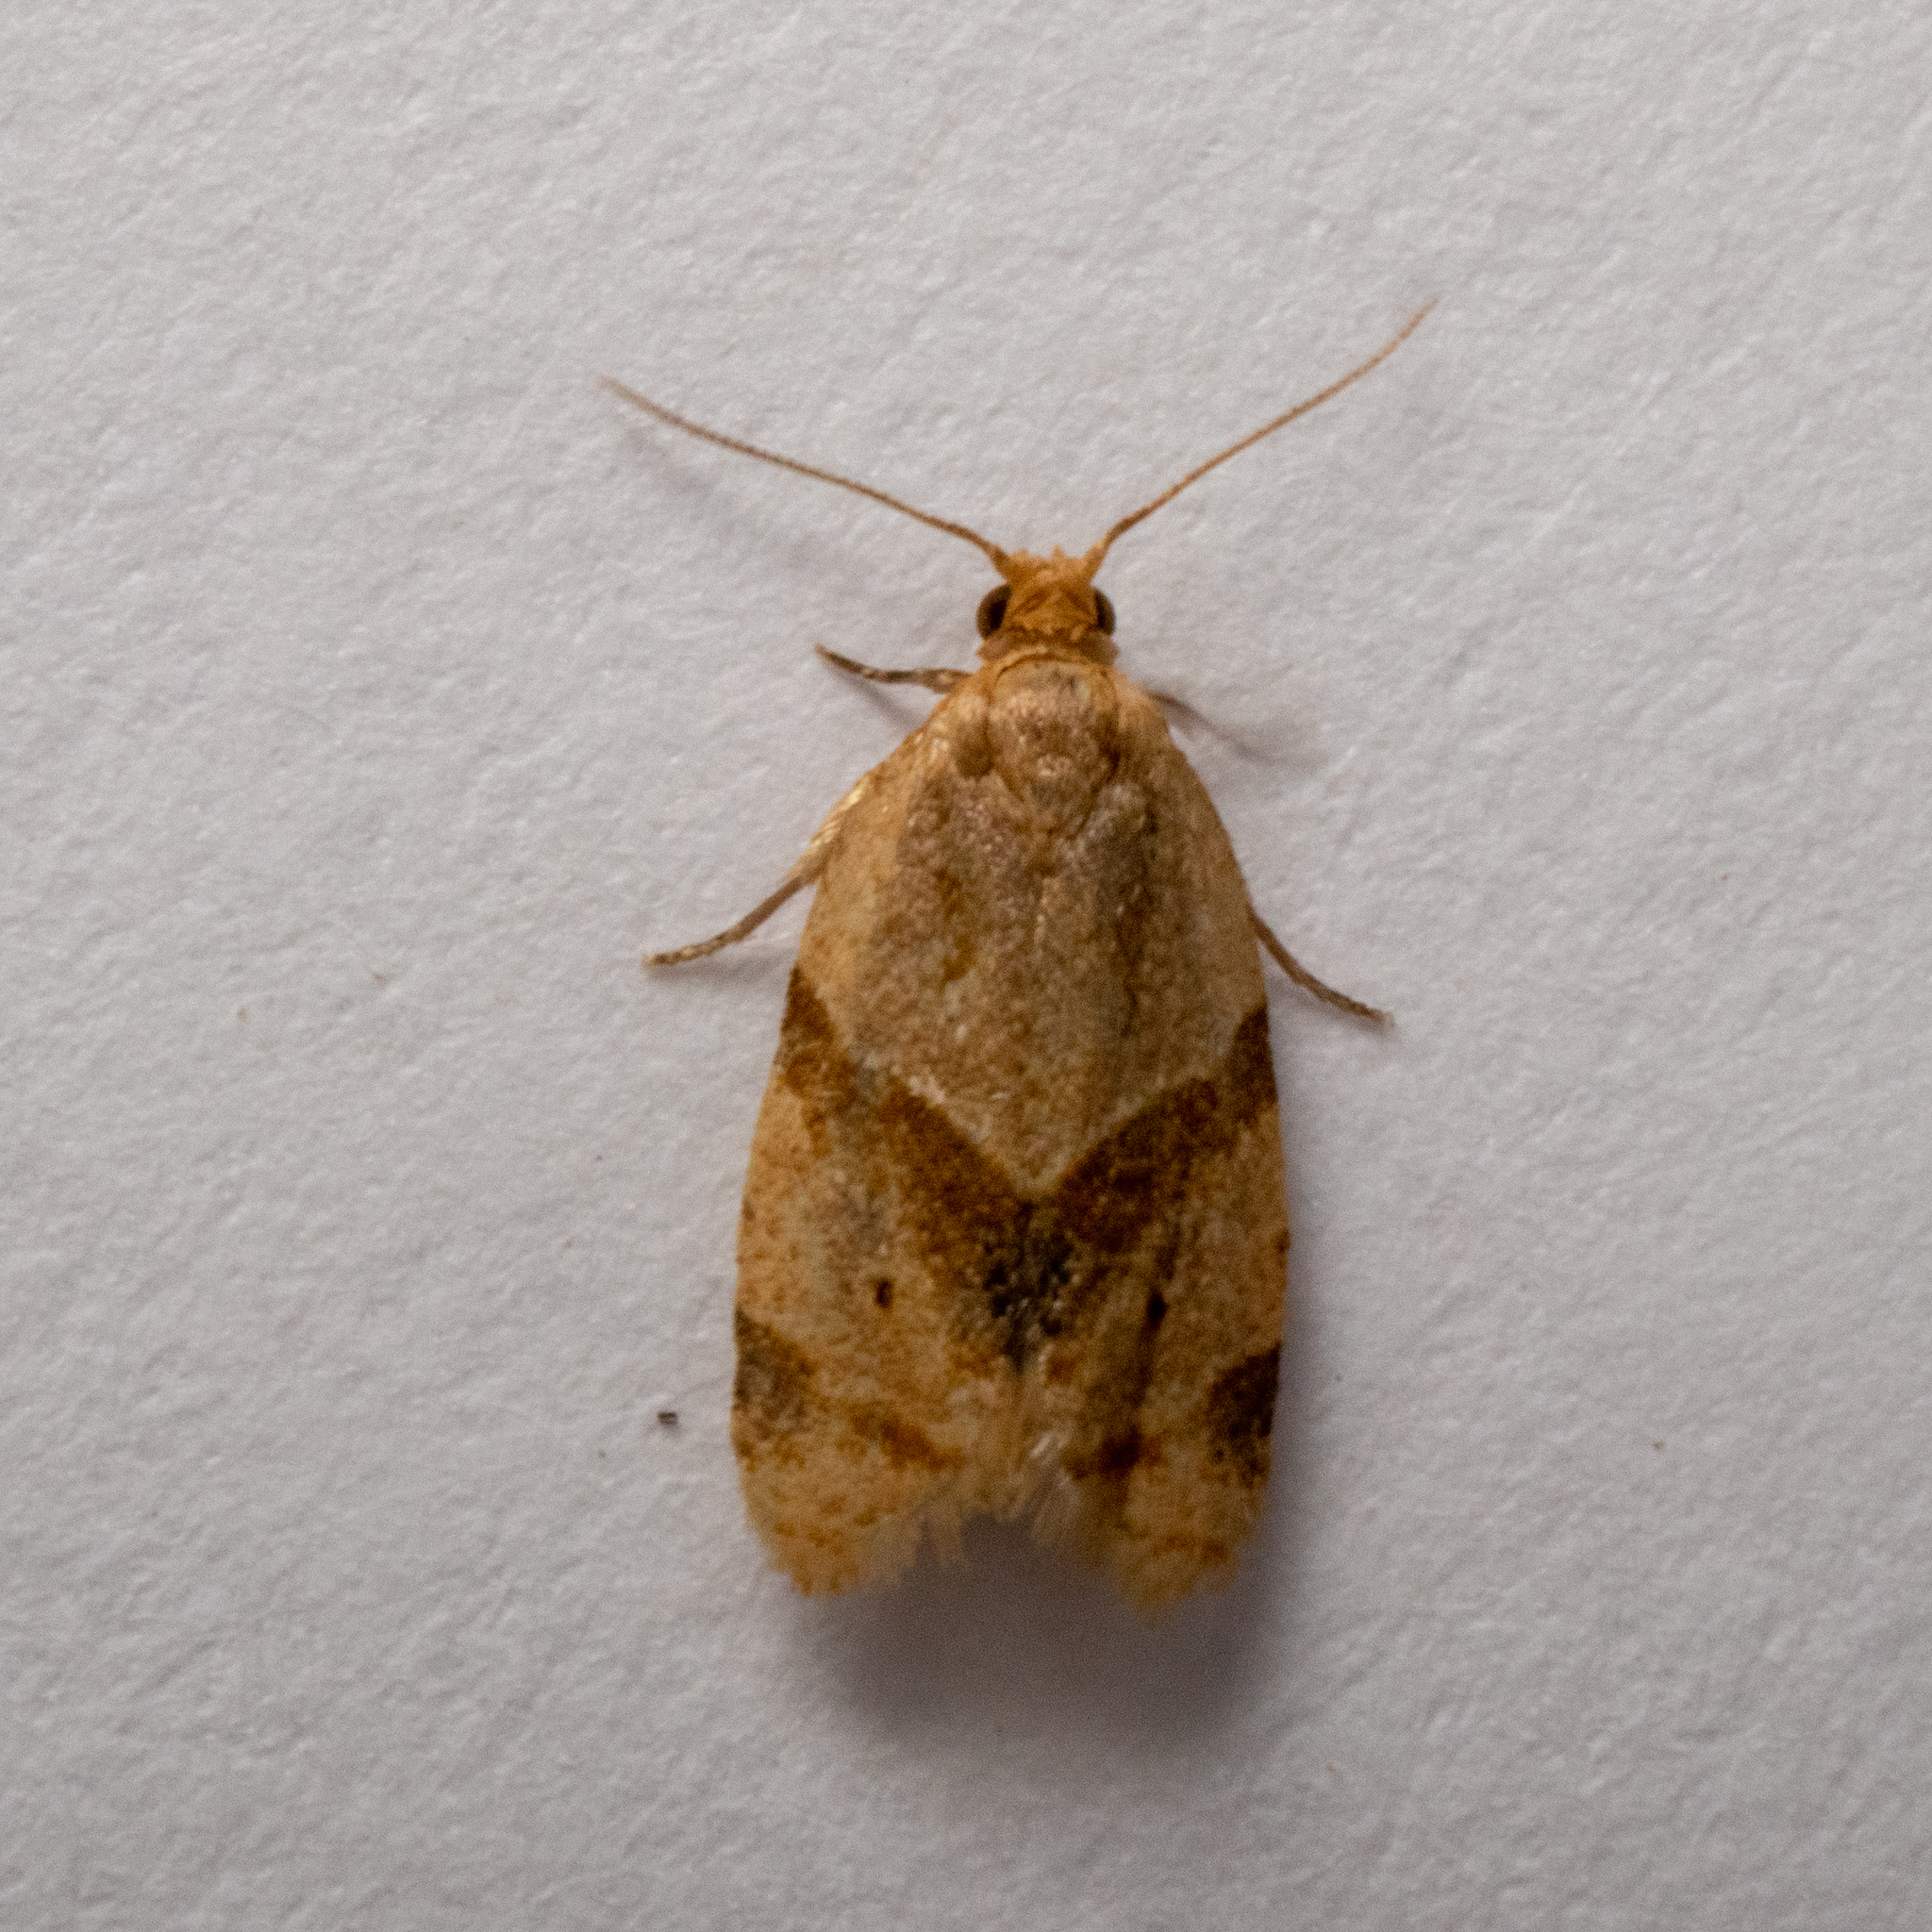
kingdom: Animalia
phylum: Arthropoda
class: Insecta
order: Lepidoptera
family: Tortricidae
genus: Clepsis
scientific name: Clepsis peritana
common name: Garden tortrix
